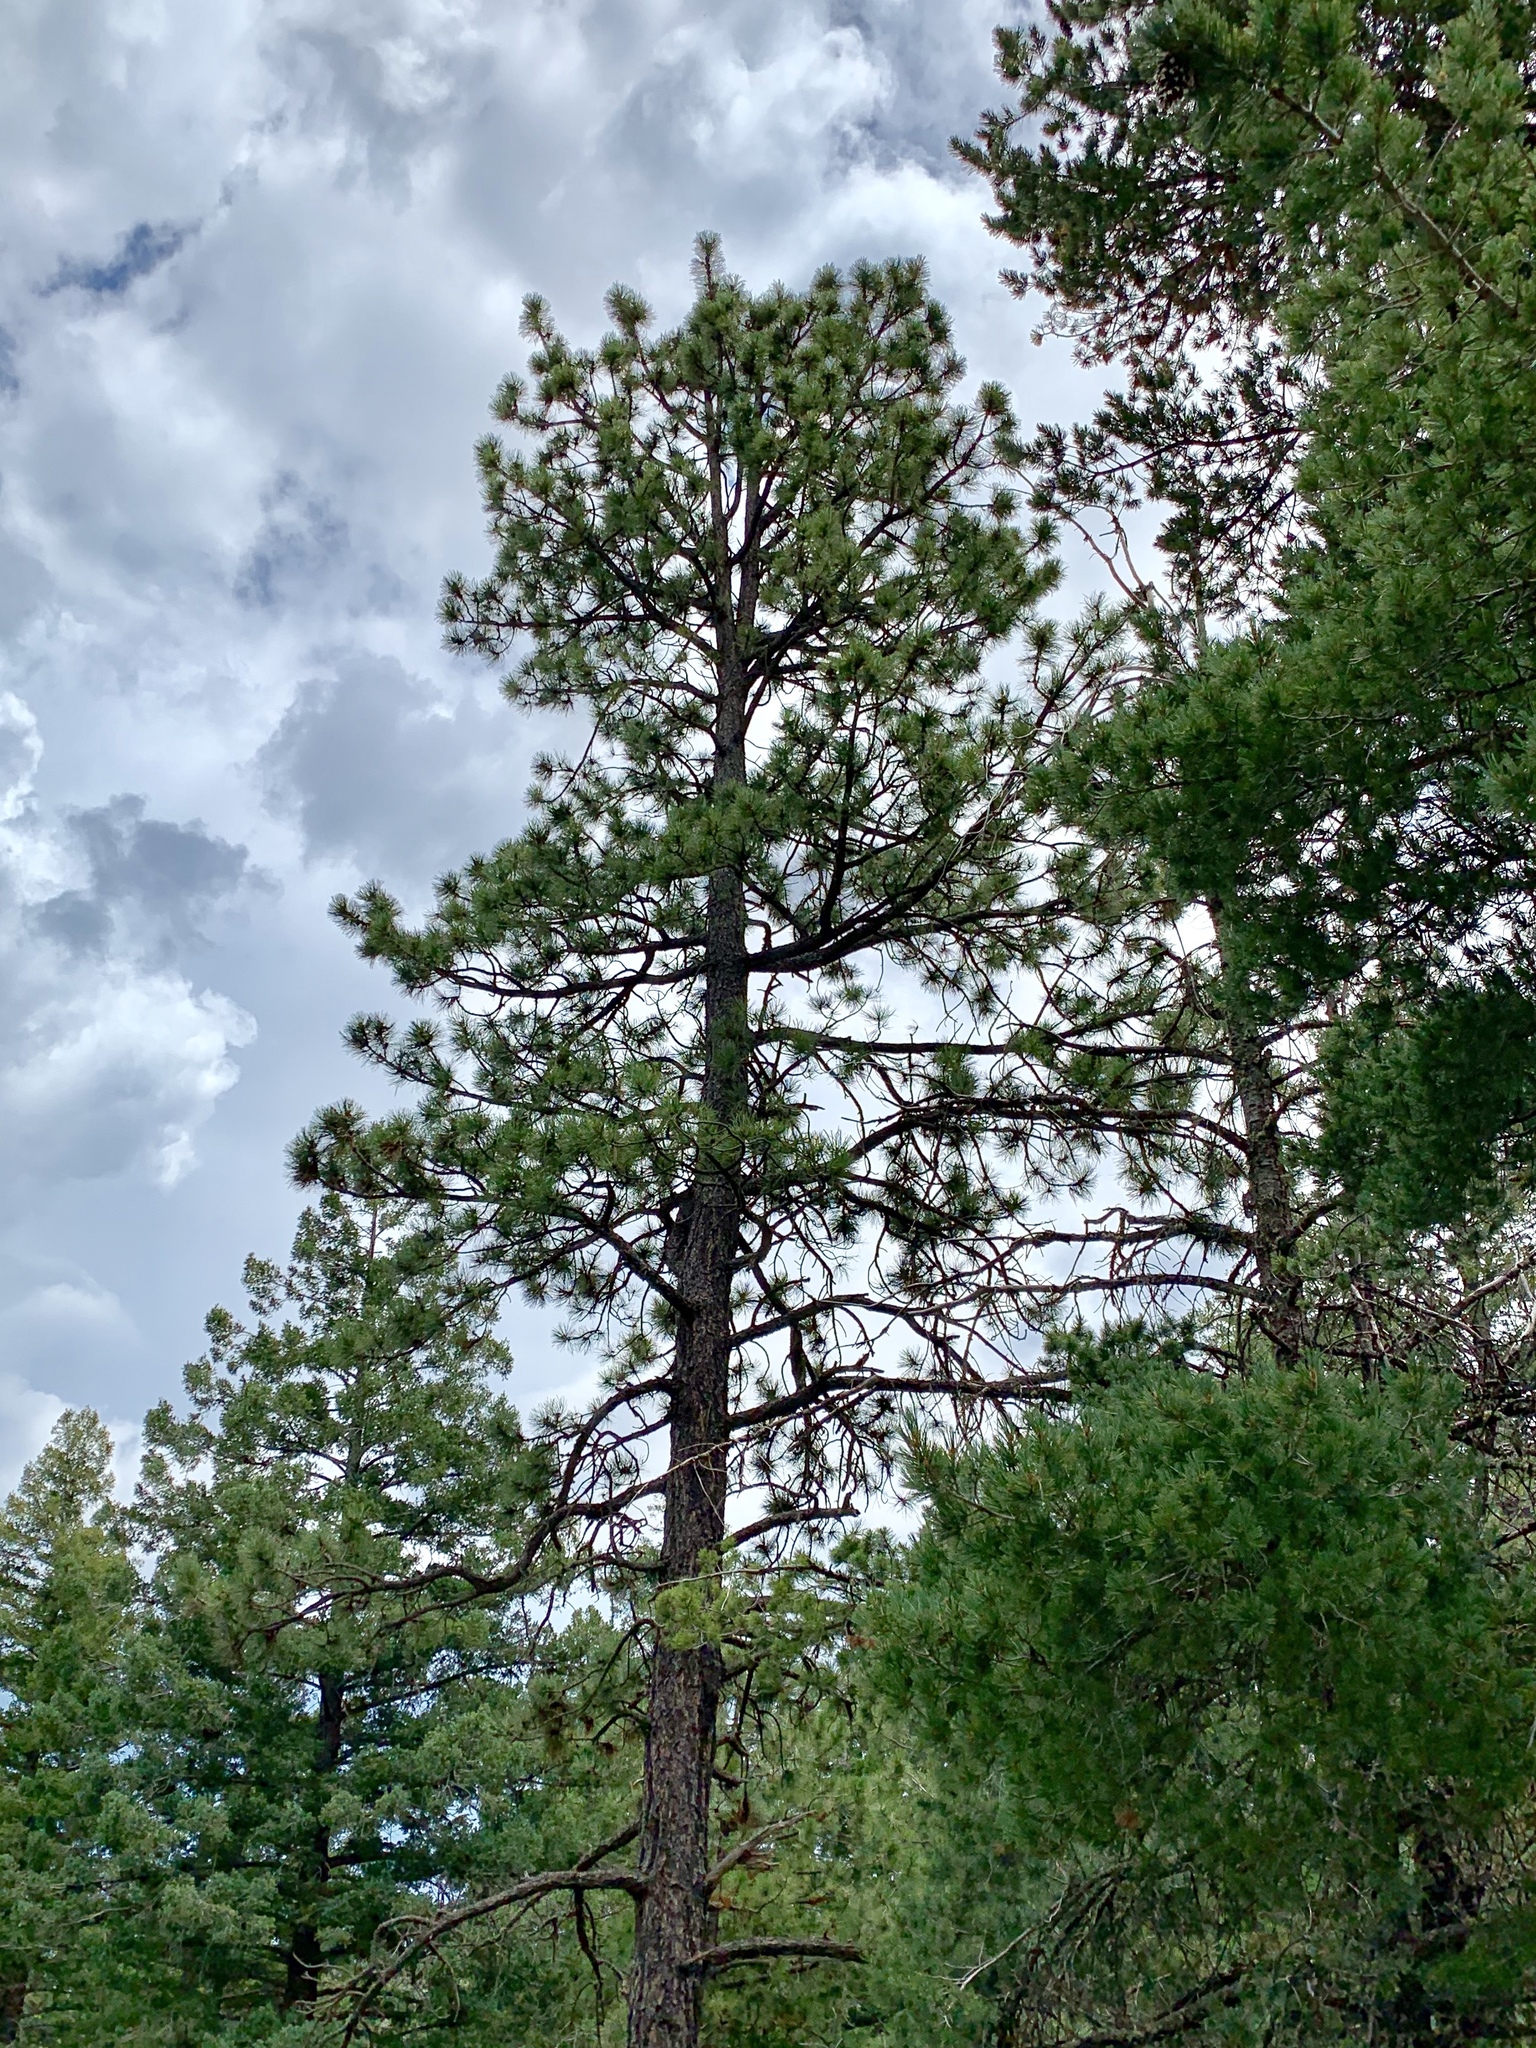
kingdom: Plantae
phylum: Tracheophyta
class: Pinopsida
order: Pinales
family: Pinaceae
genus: Pinus
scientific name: Pinus ponderosa
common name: Western yellow-pine
